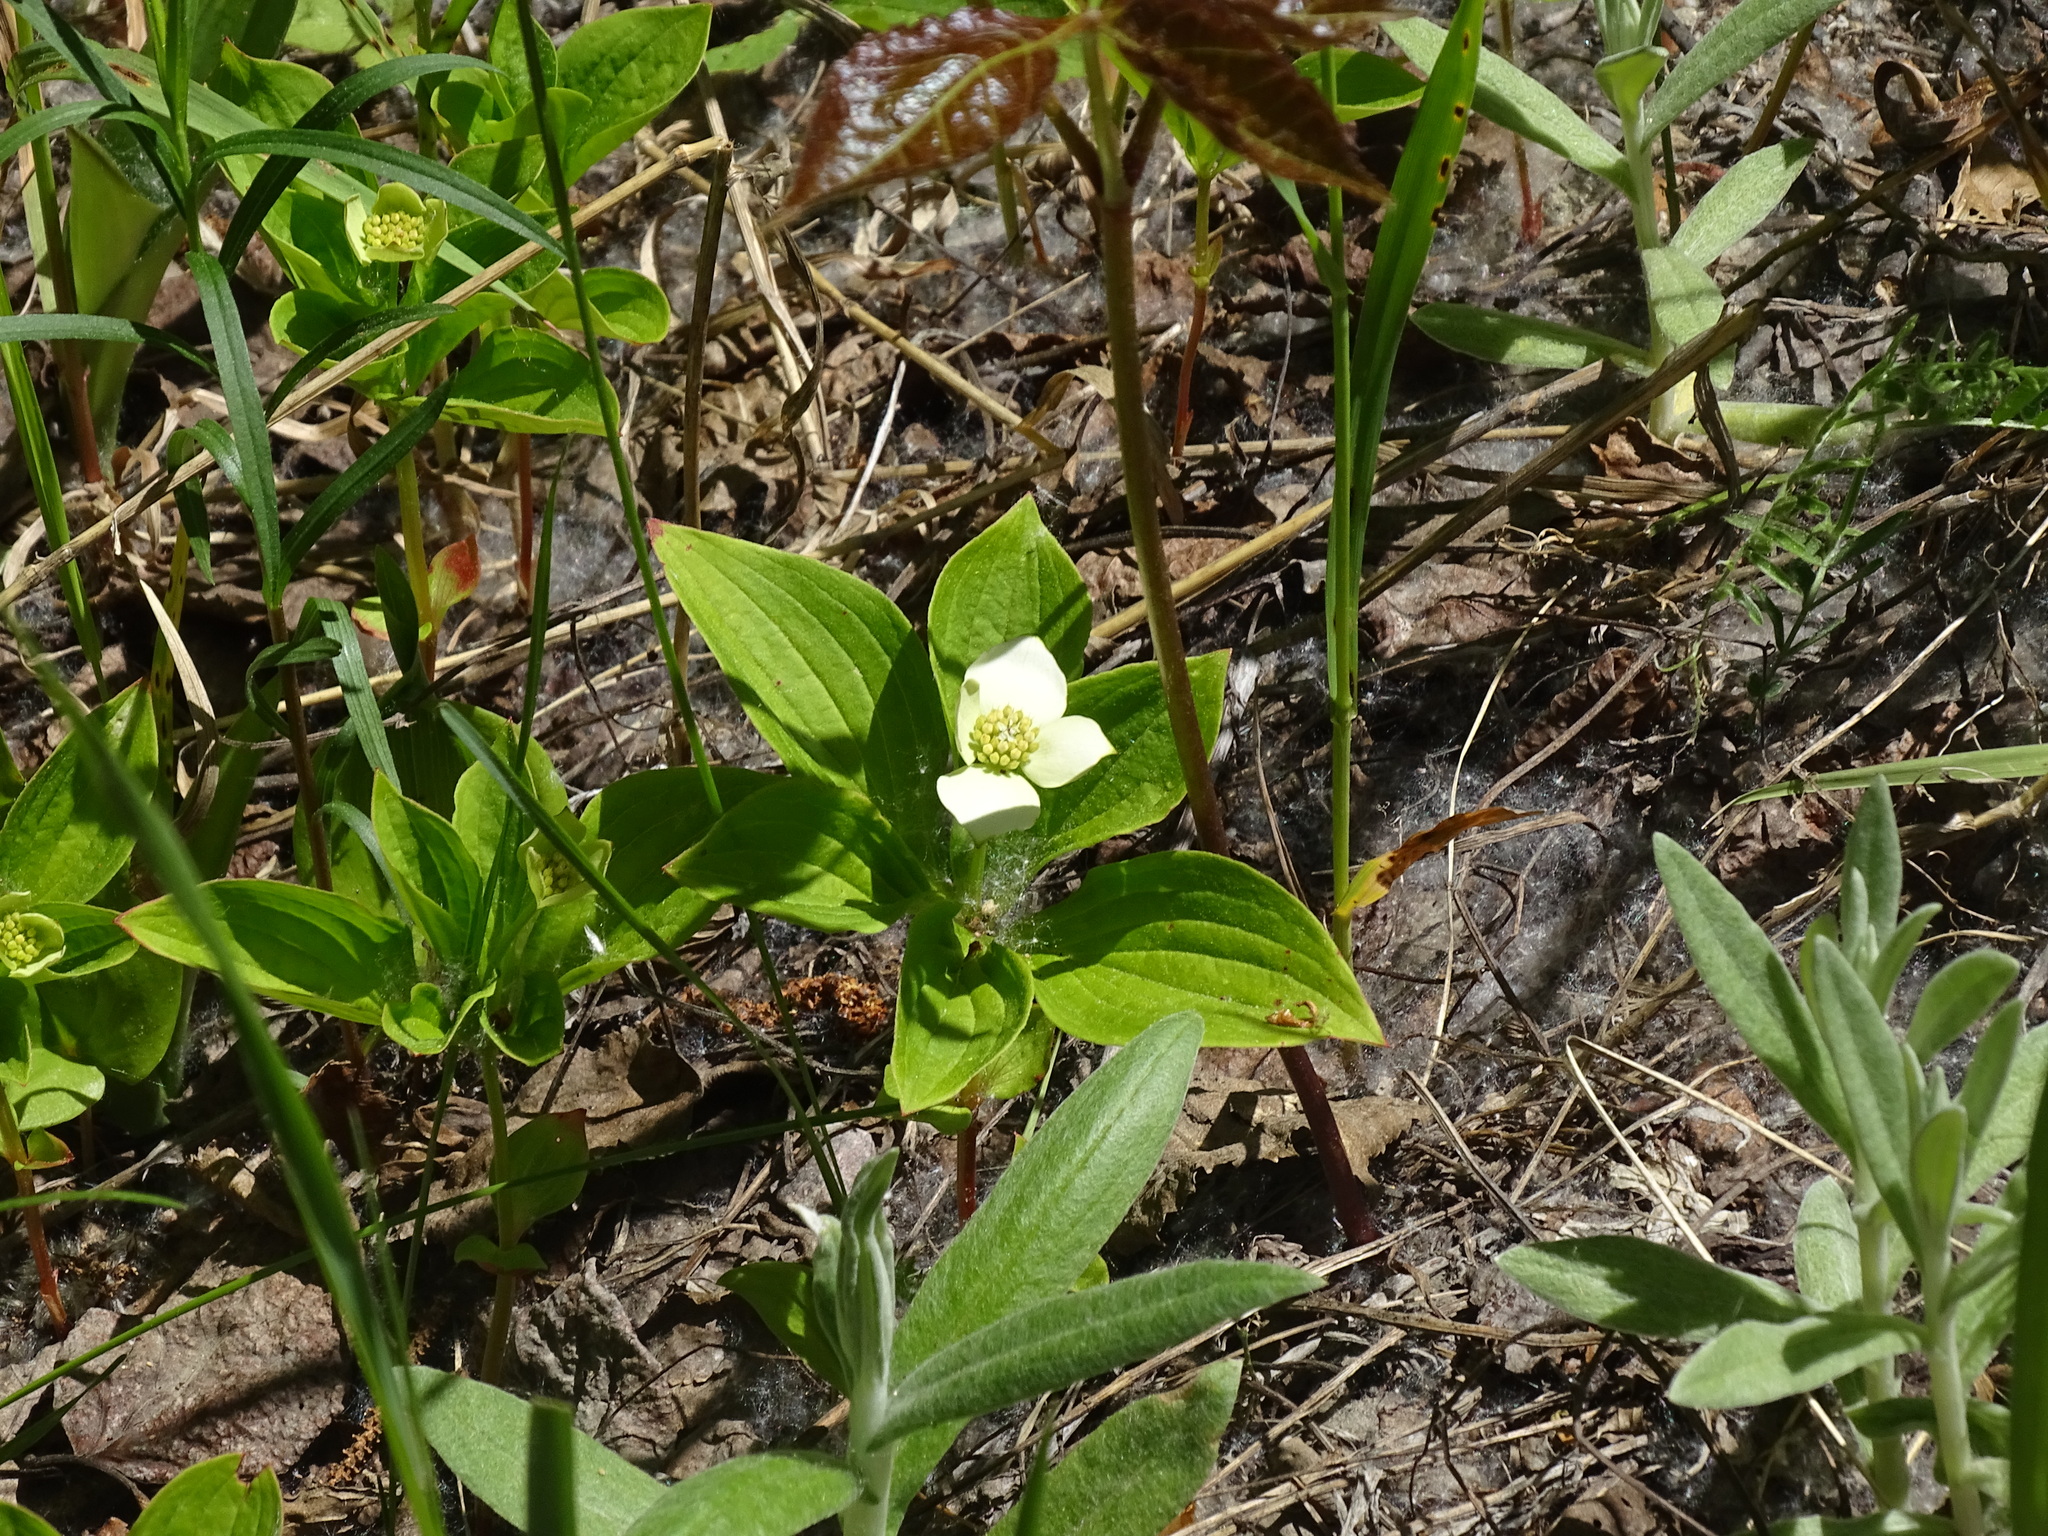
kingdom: Plantae
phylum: Tracheophyta
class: Magnoliopsida
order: Cornales
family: Cornaceae
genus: Cornus
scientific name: Cornus canadensis
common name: Creeping dogwood
